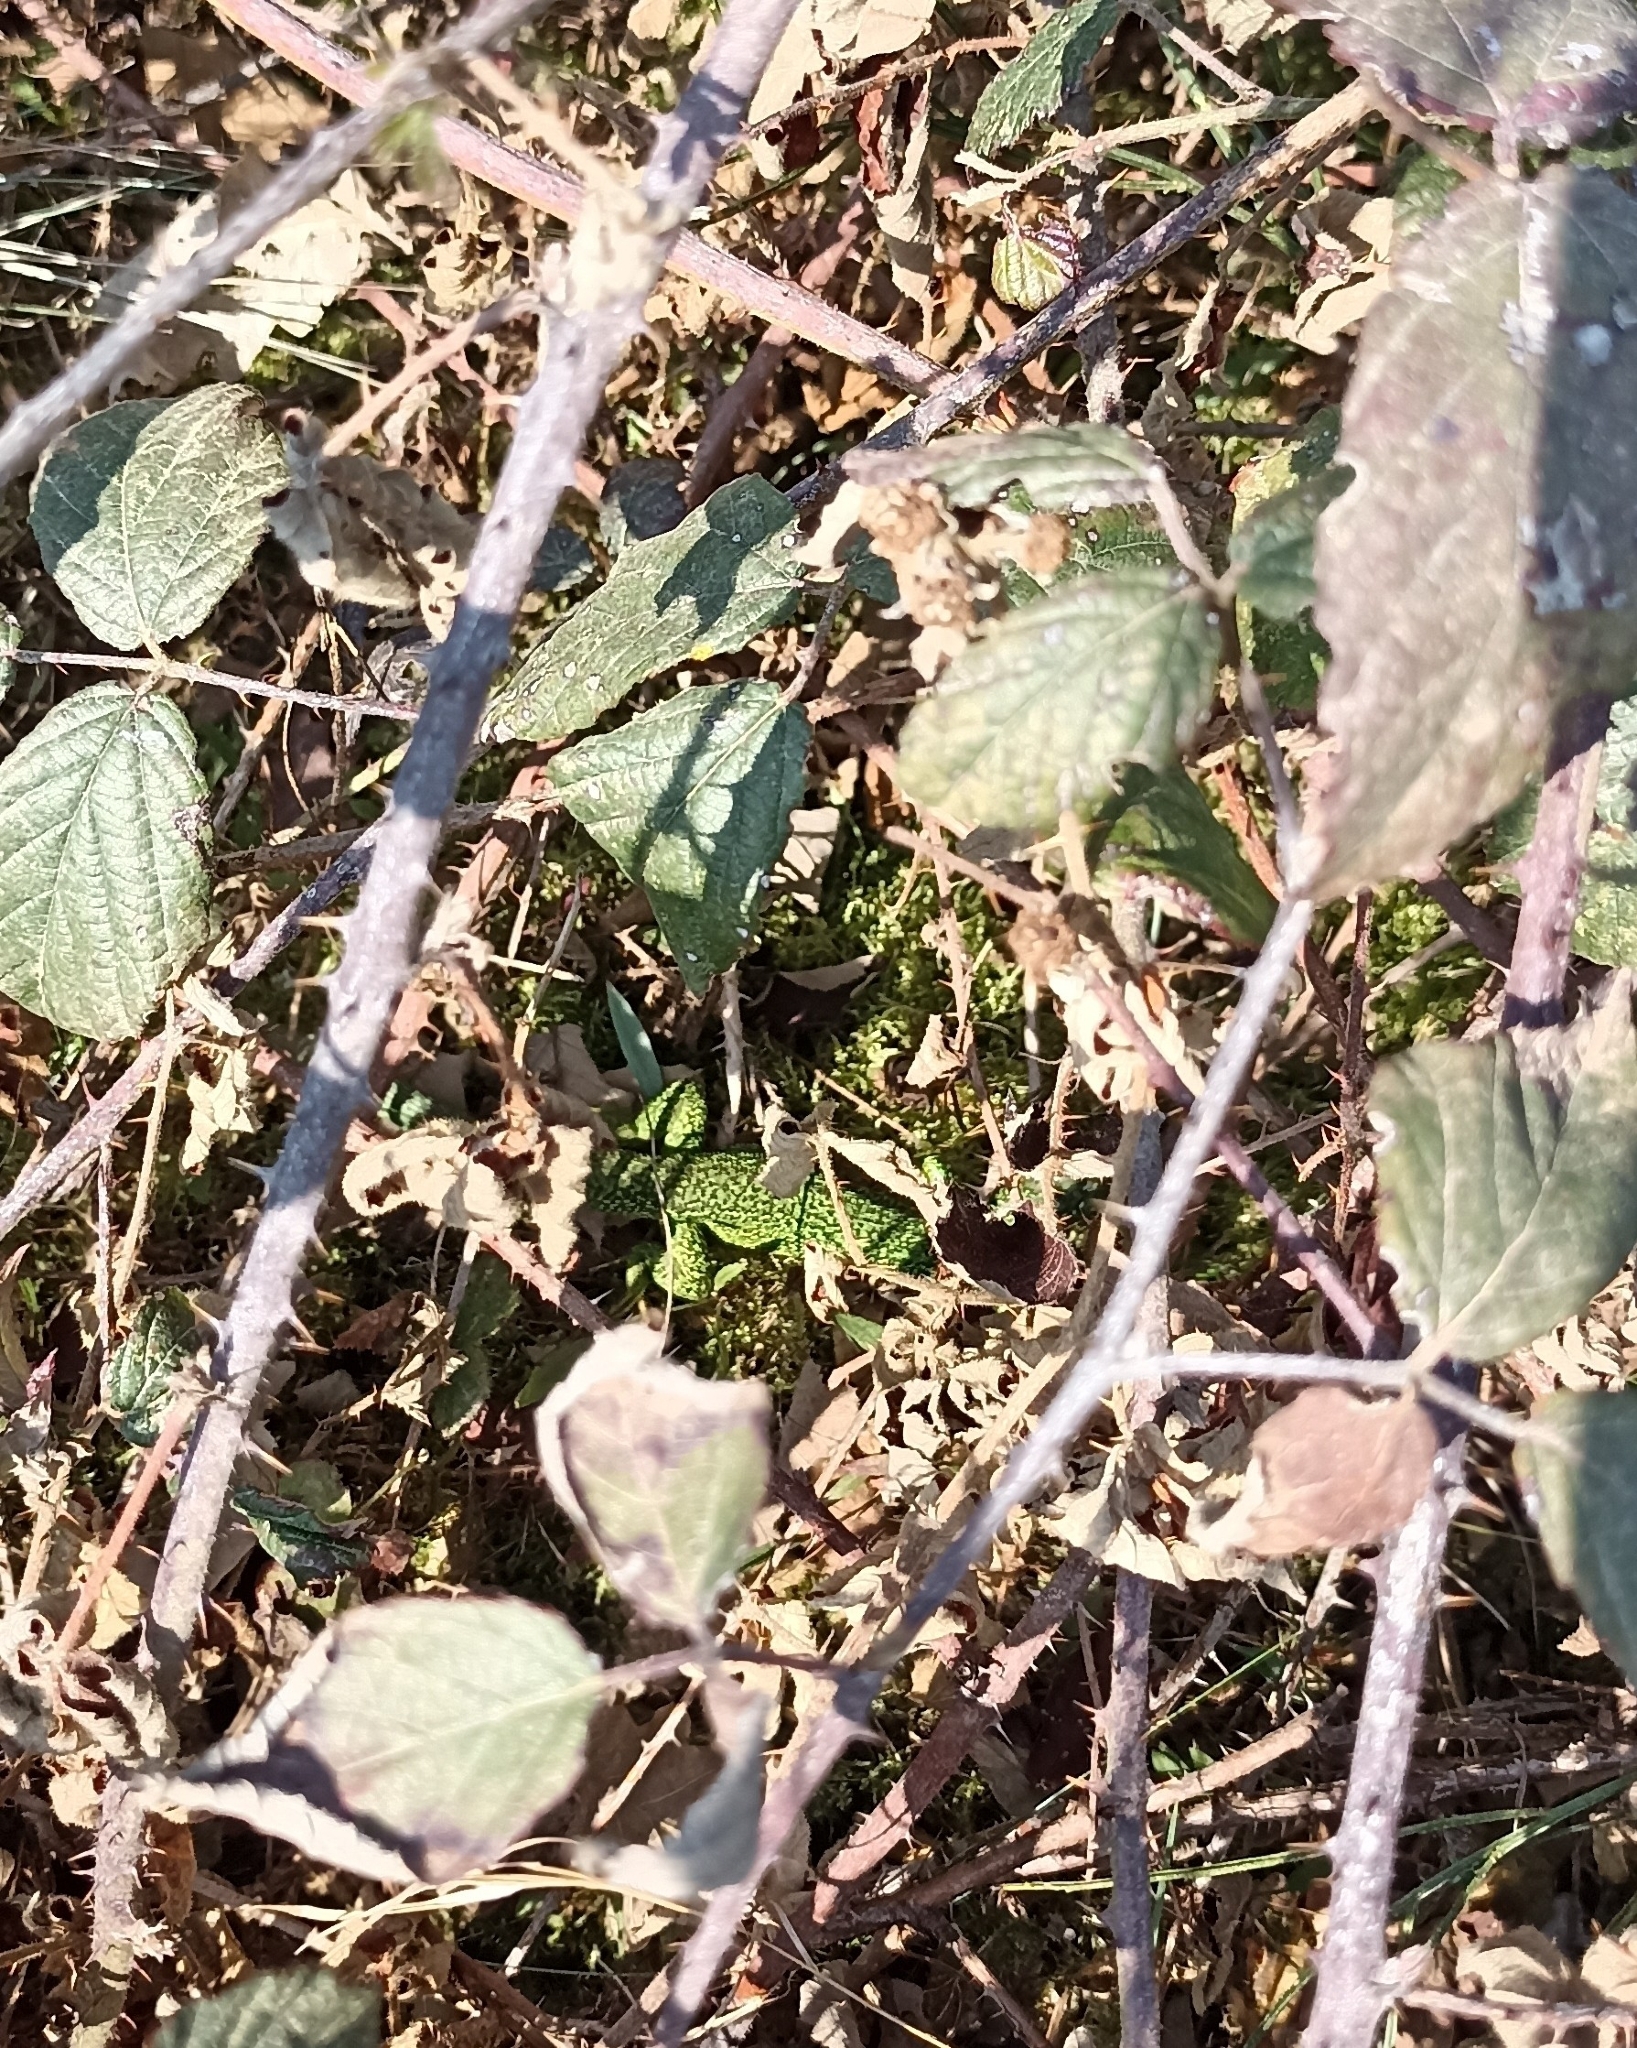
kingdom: Animalia
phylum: Chordata
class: Squamata
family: Lacertidae
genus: Lacerta
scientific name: Lacerta bilineata
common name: Western green lizard
